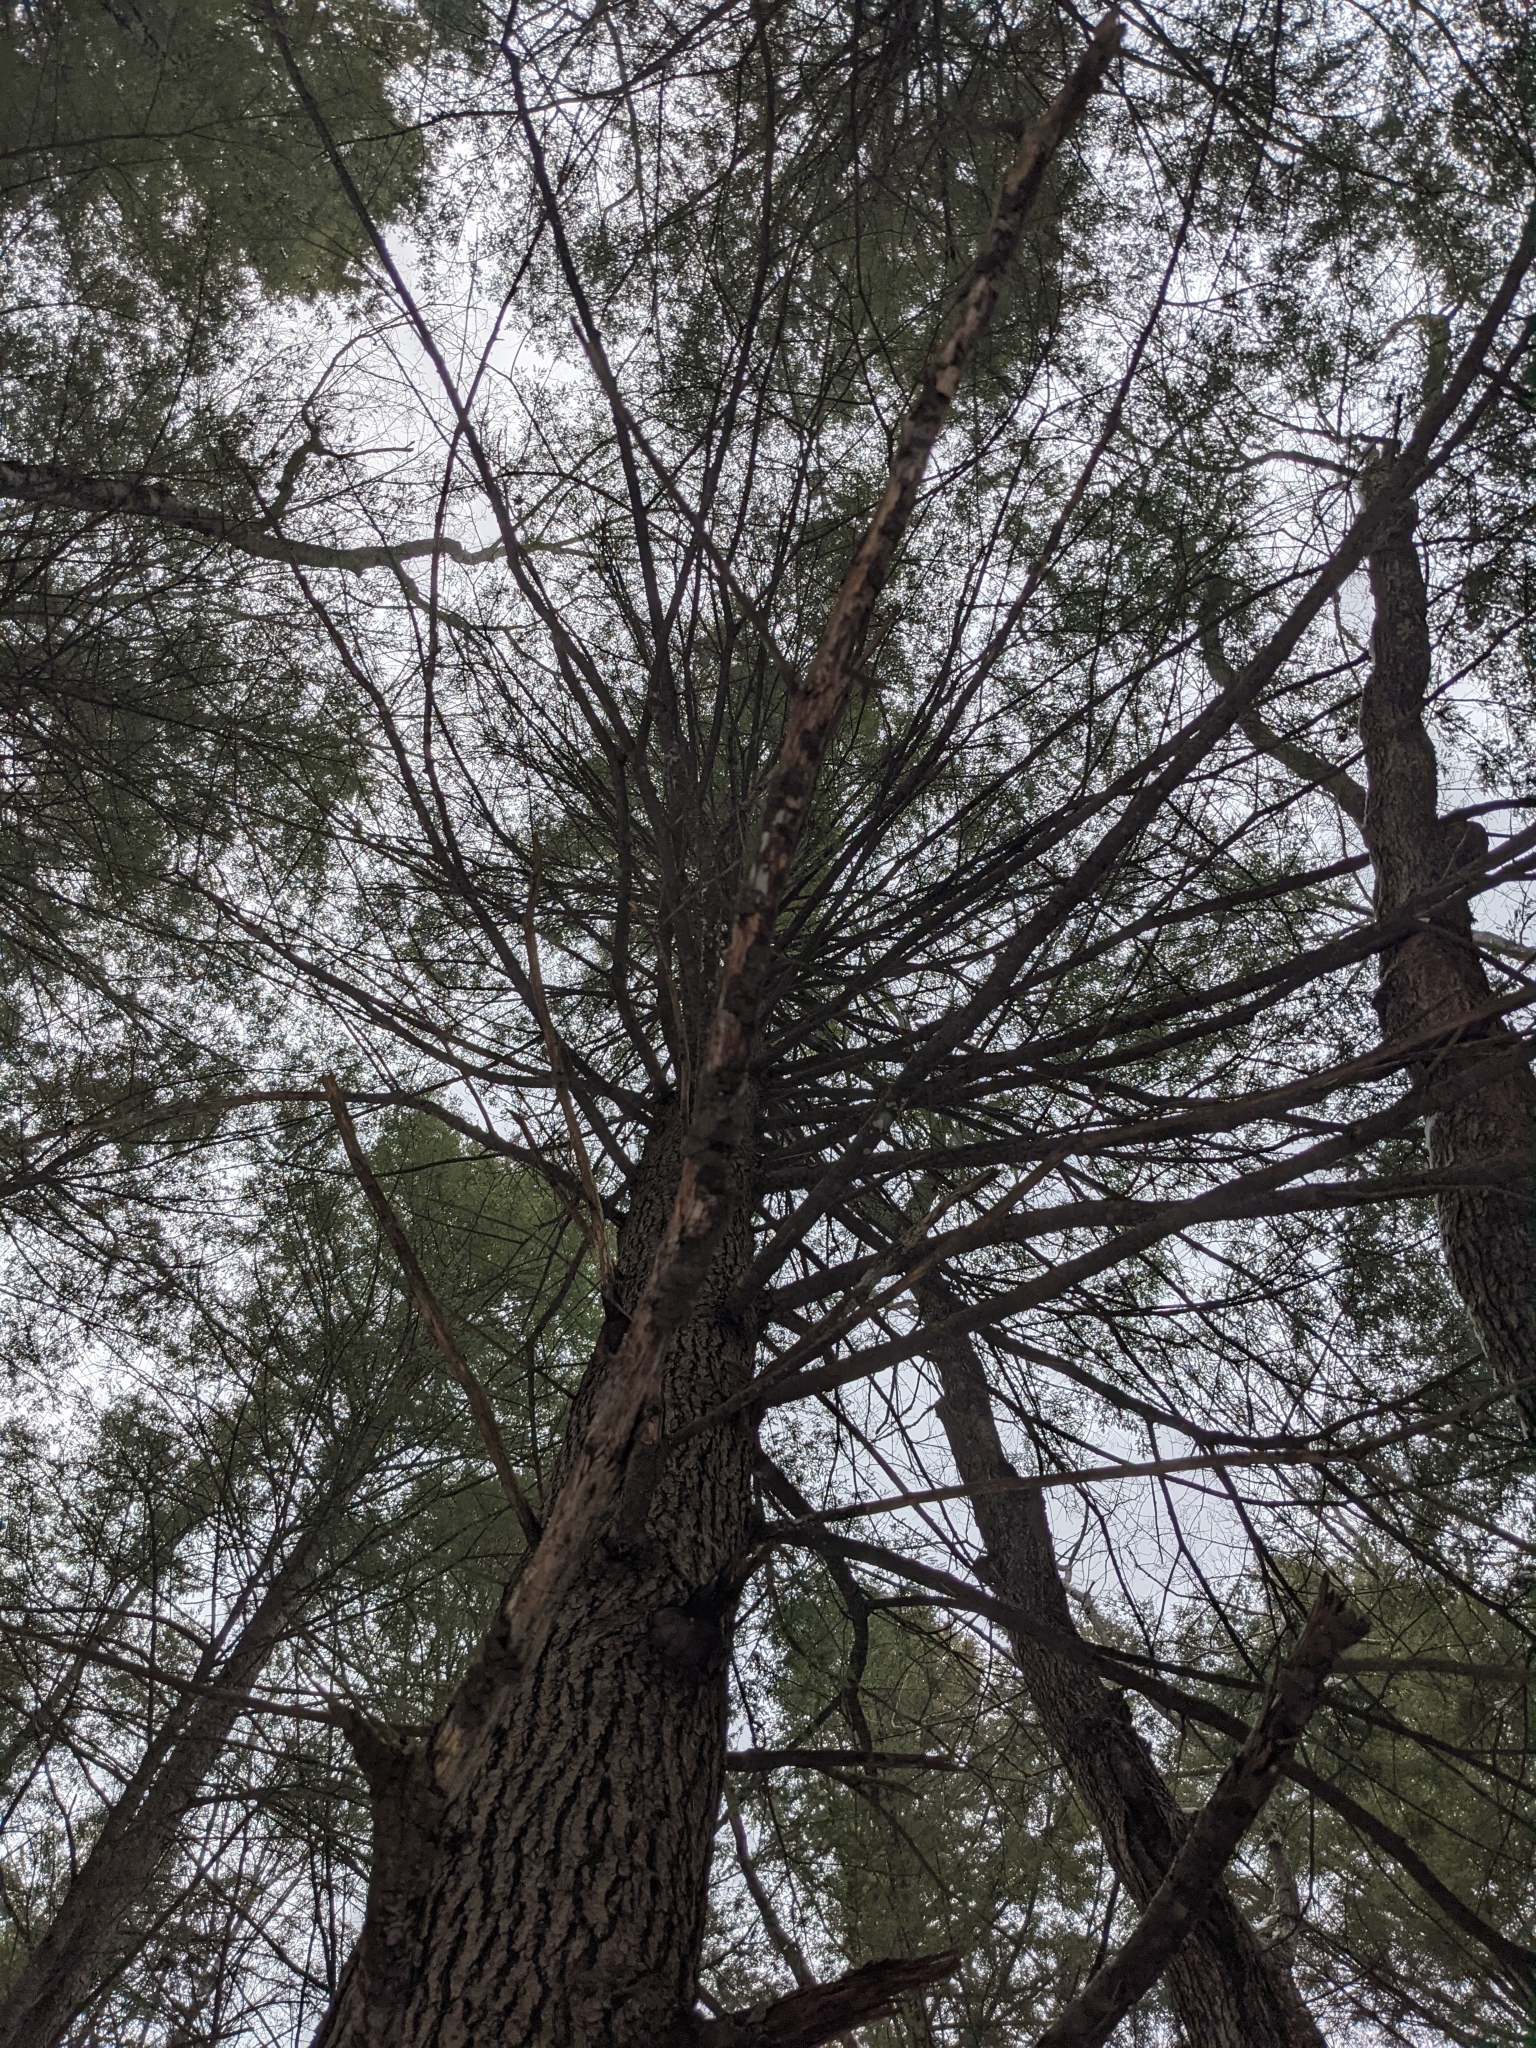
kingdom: Plantae
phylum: Tracheophyta
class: Pinopsida
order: Pinales
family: Pinaceae
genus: Tsuga
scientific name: Tsuga canadensis
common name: Eastern hemlock
